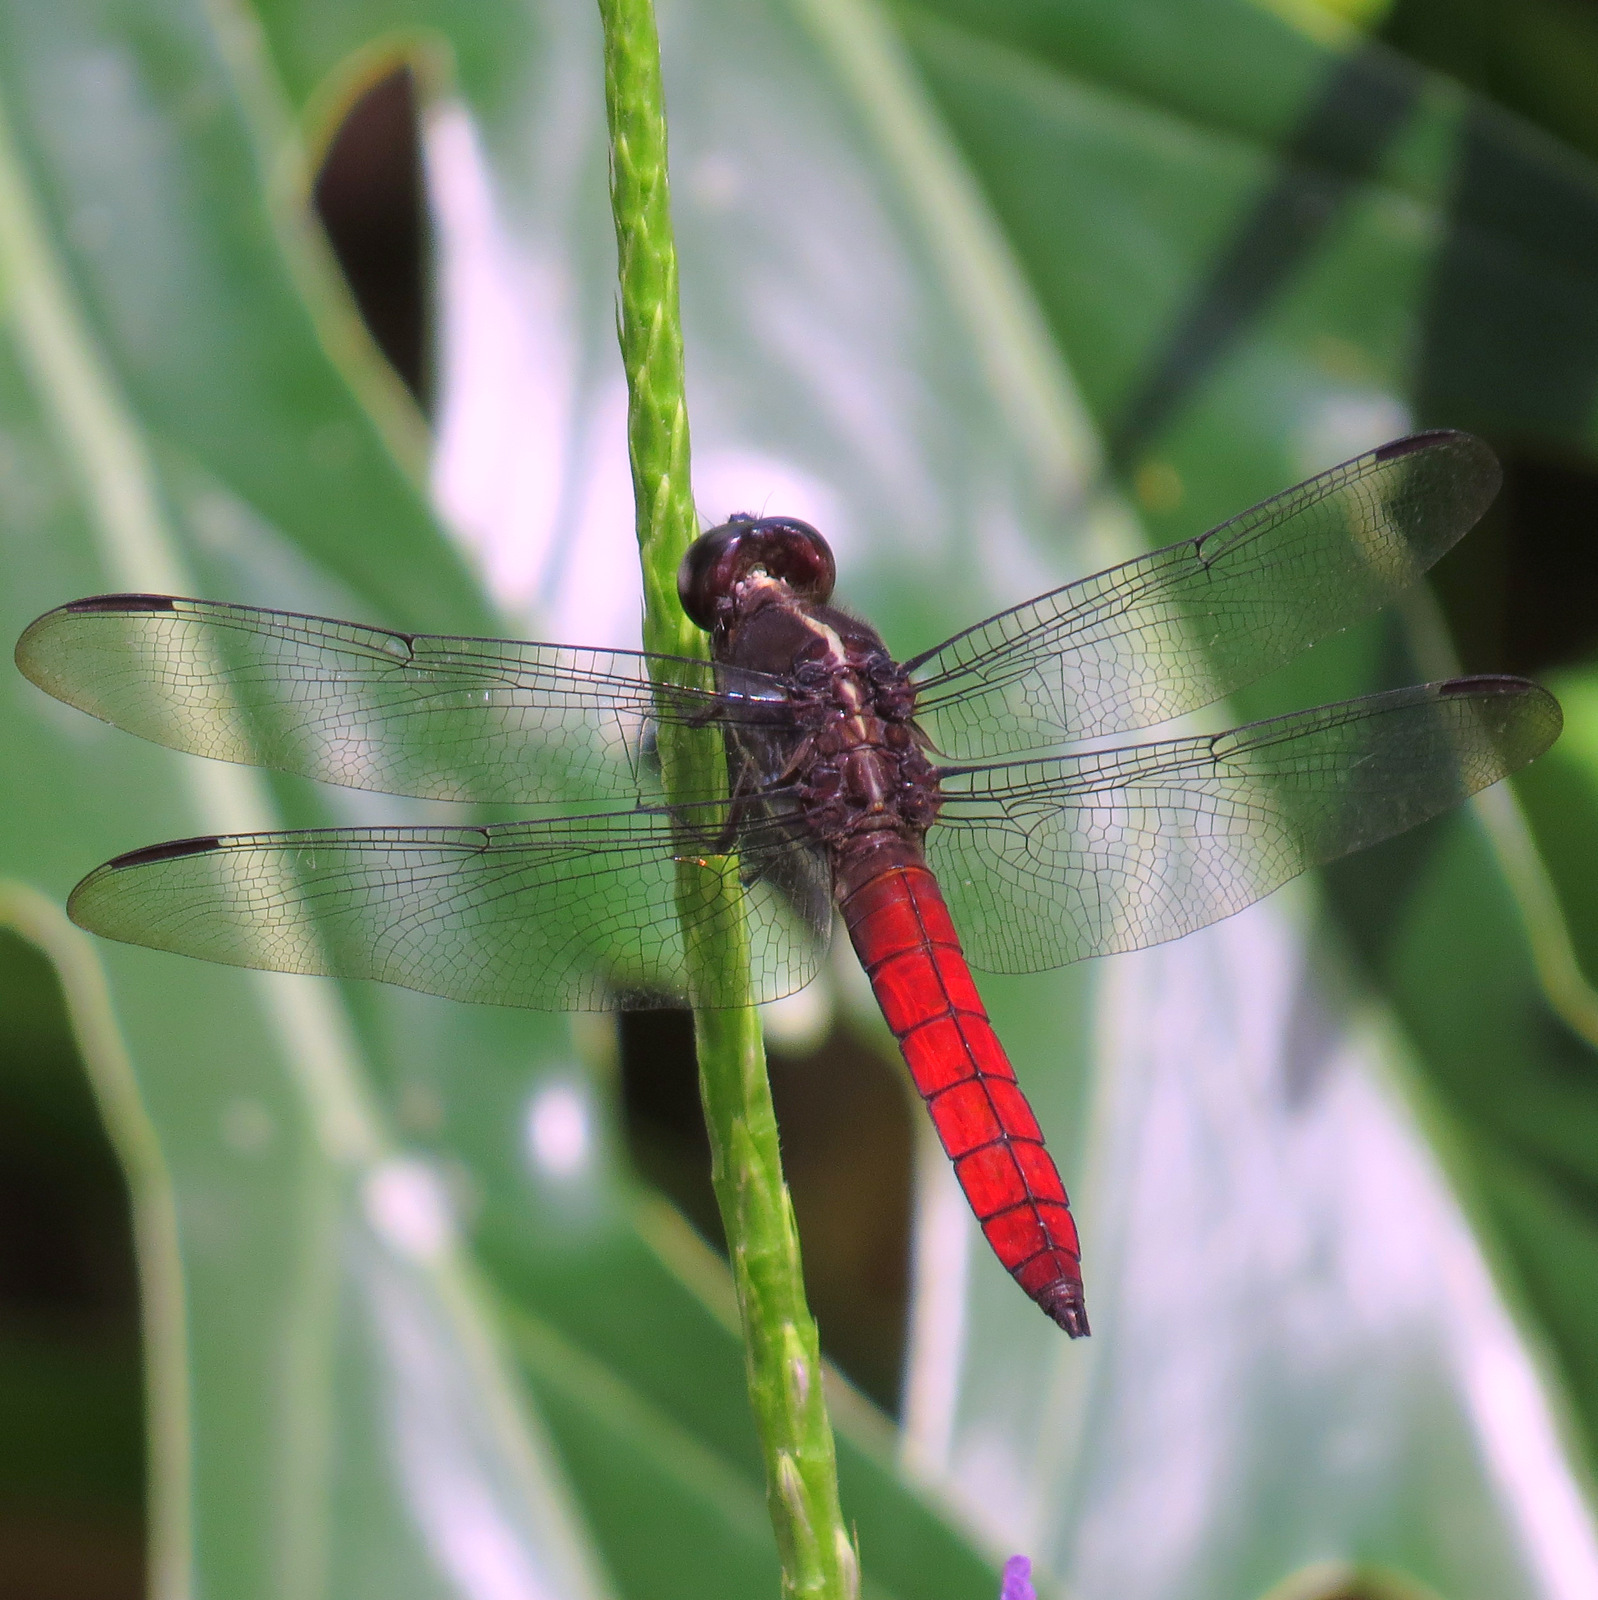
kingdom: Animalia
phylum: Arthropoda
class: Insecta
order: Odonata
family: Libellulidae
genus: Libellula
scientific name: Libellula herculea
